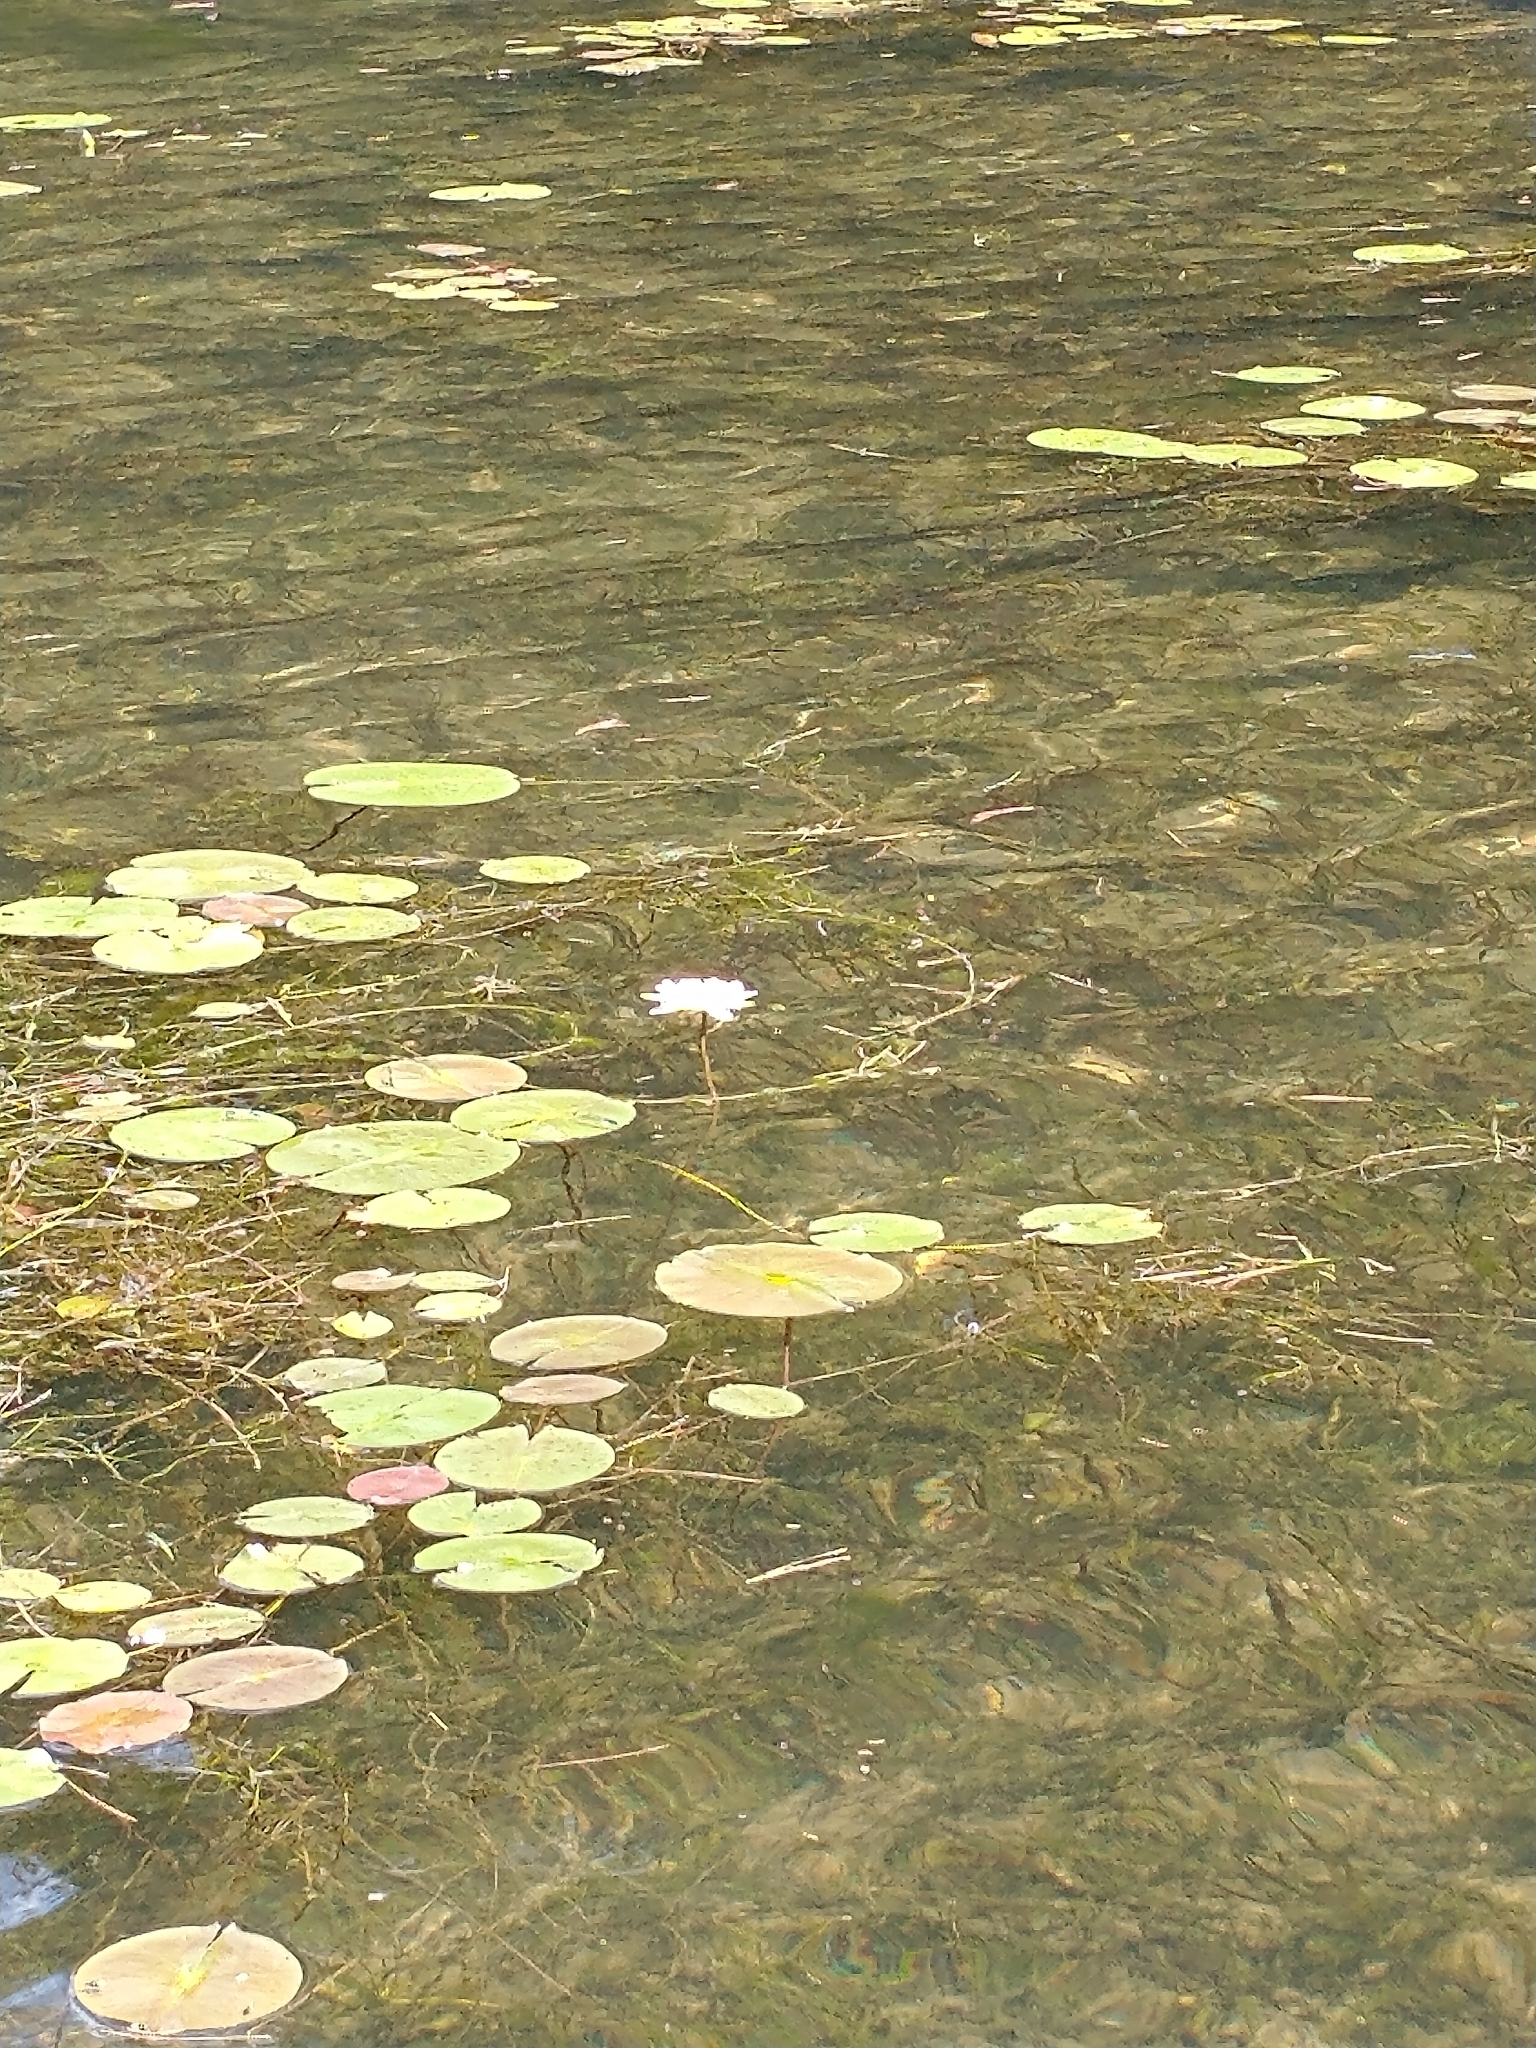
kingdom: Plantae
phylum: Tracheophyta
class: Magnoliopsida
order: Nymphaeales
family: Nymphaeaceae
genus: Nymphaea
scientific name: Nymphaea odorata
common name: Fragrant water-lily
